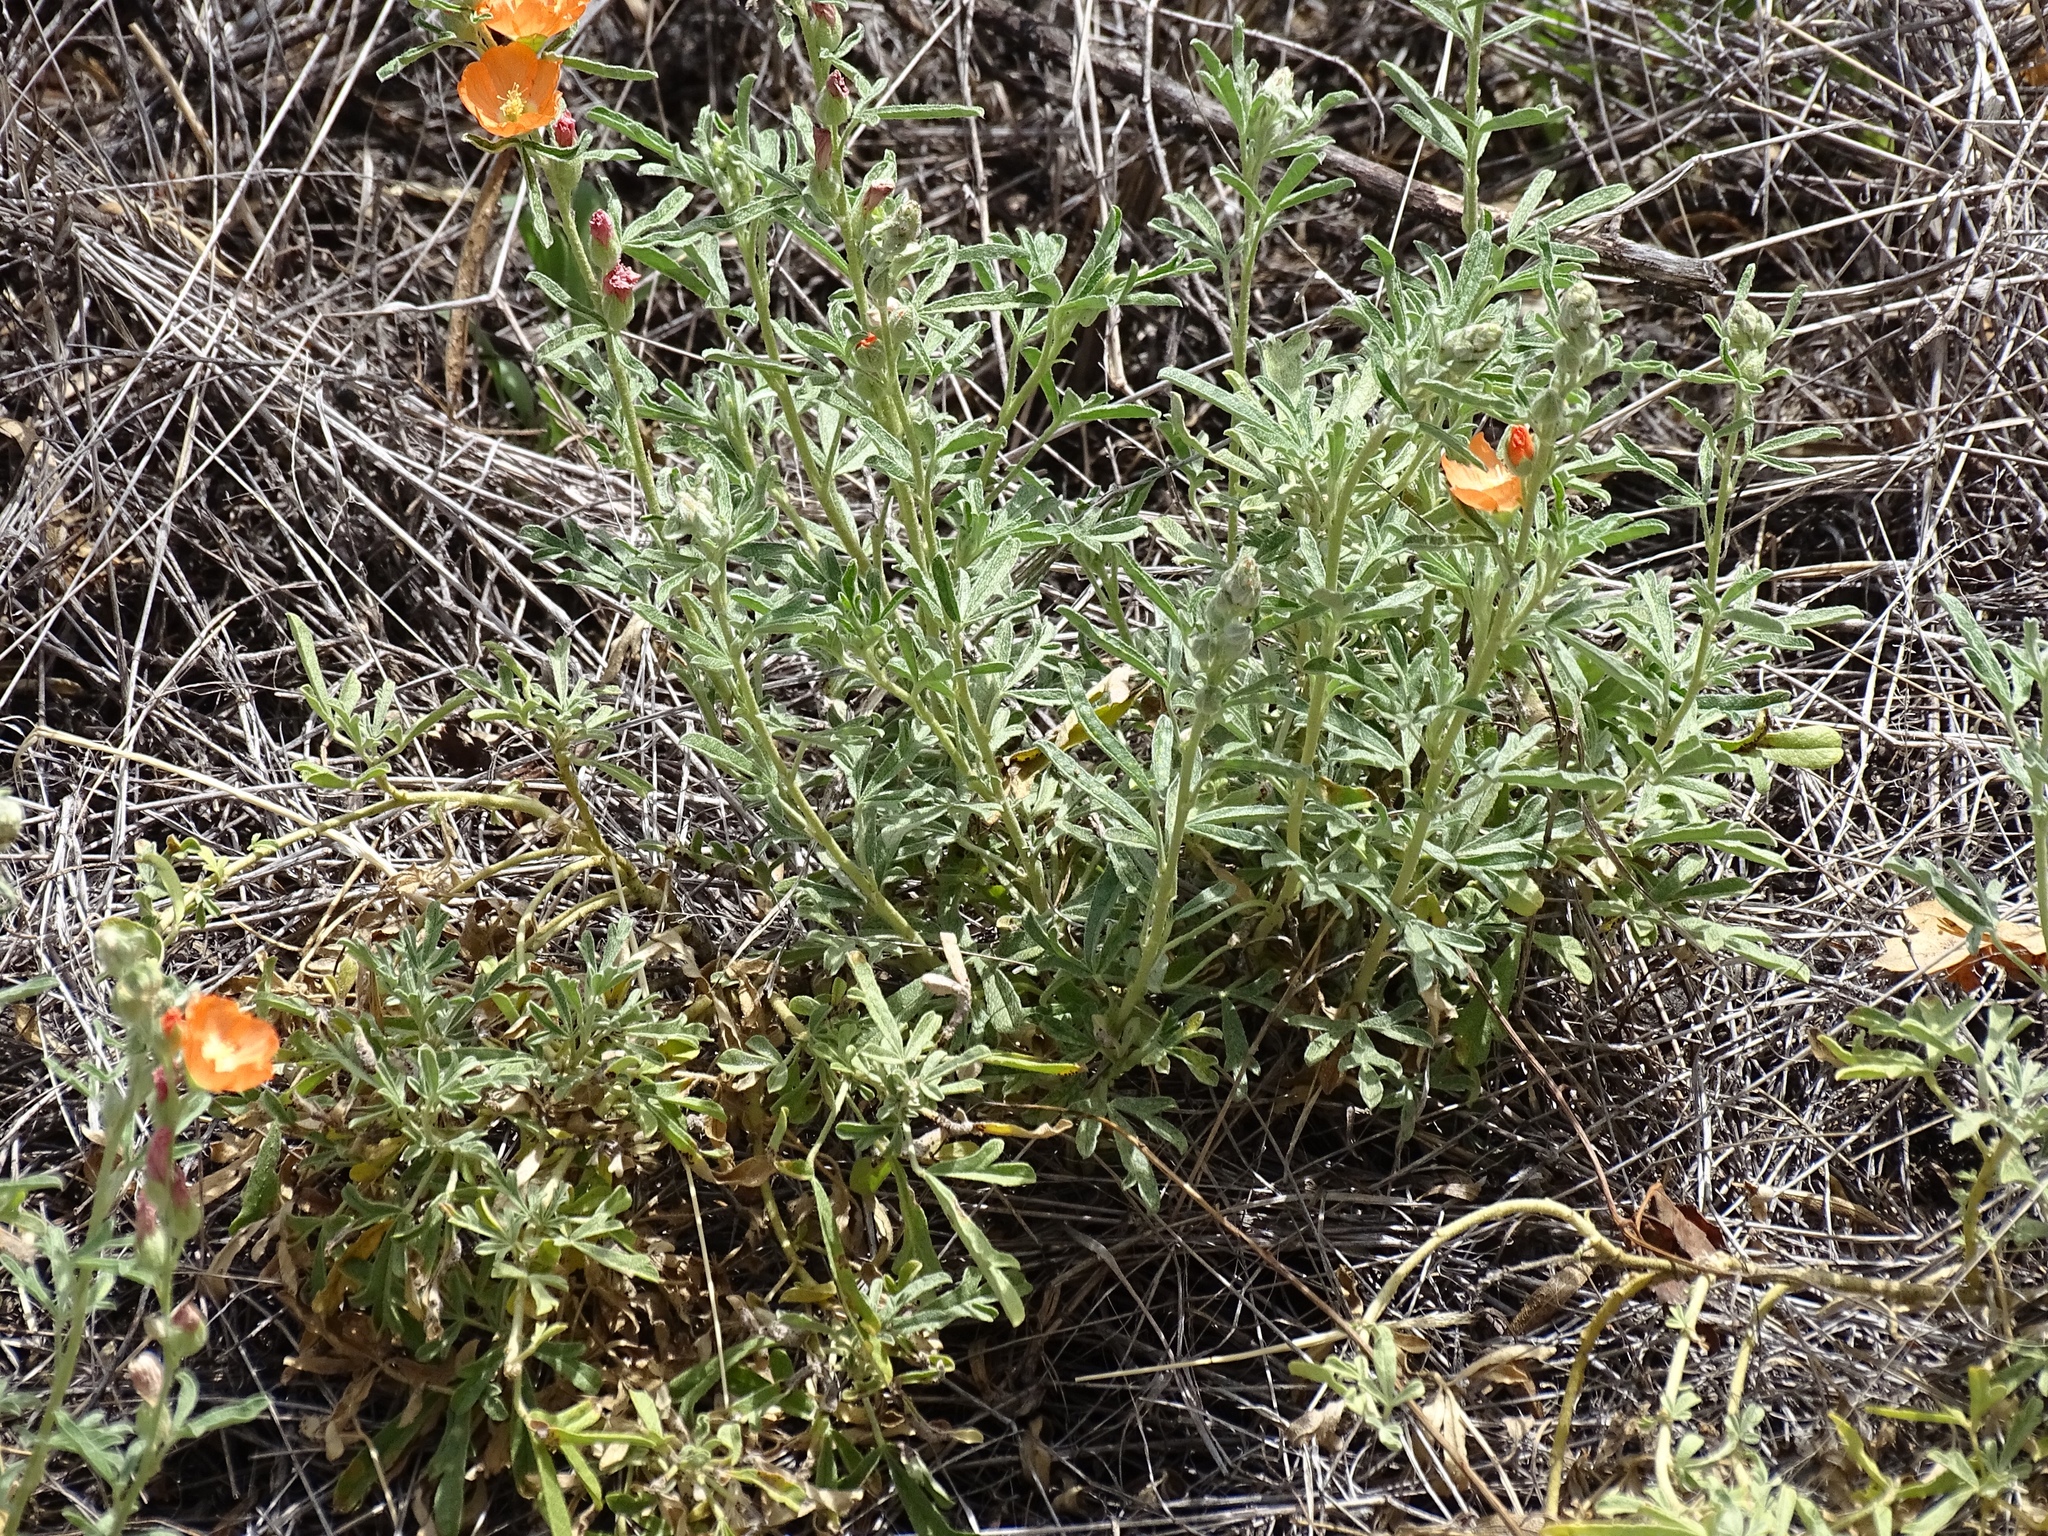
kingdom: Plantae
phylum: Tracheophyta
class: Magnoliopsida
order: Malvales
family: Malvaceae
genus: Sphaeralcea
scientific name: Sphaeralcea coccinea
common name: Moss-rose
